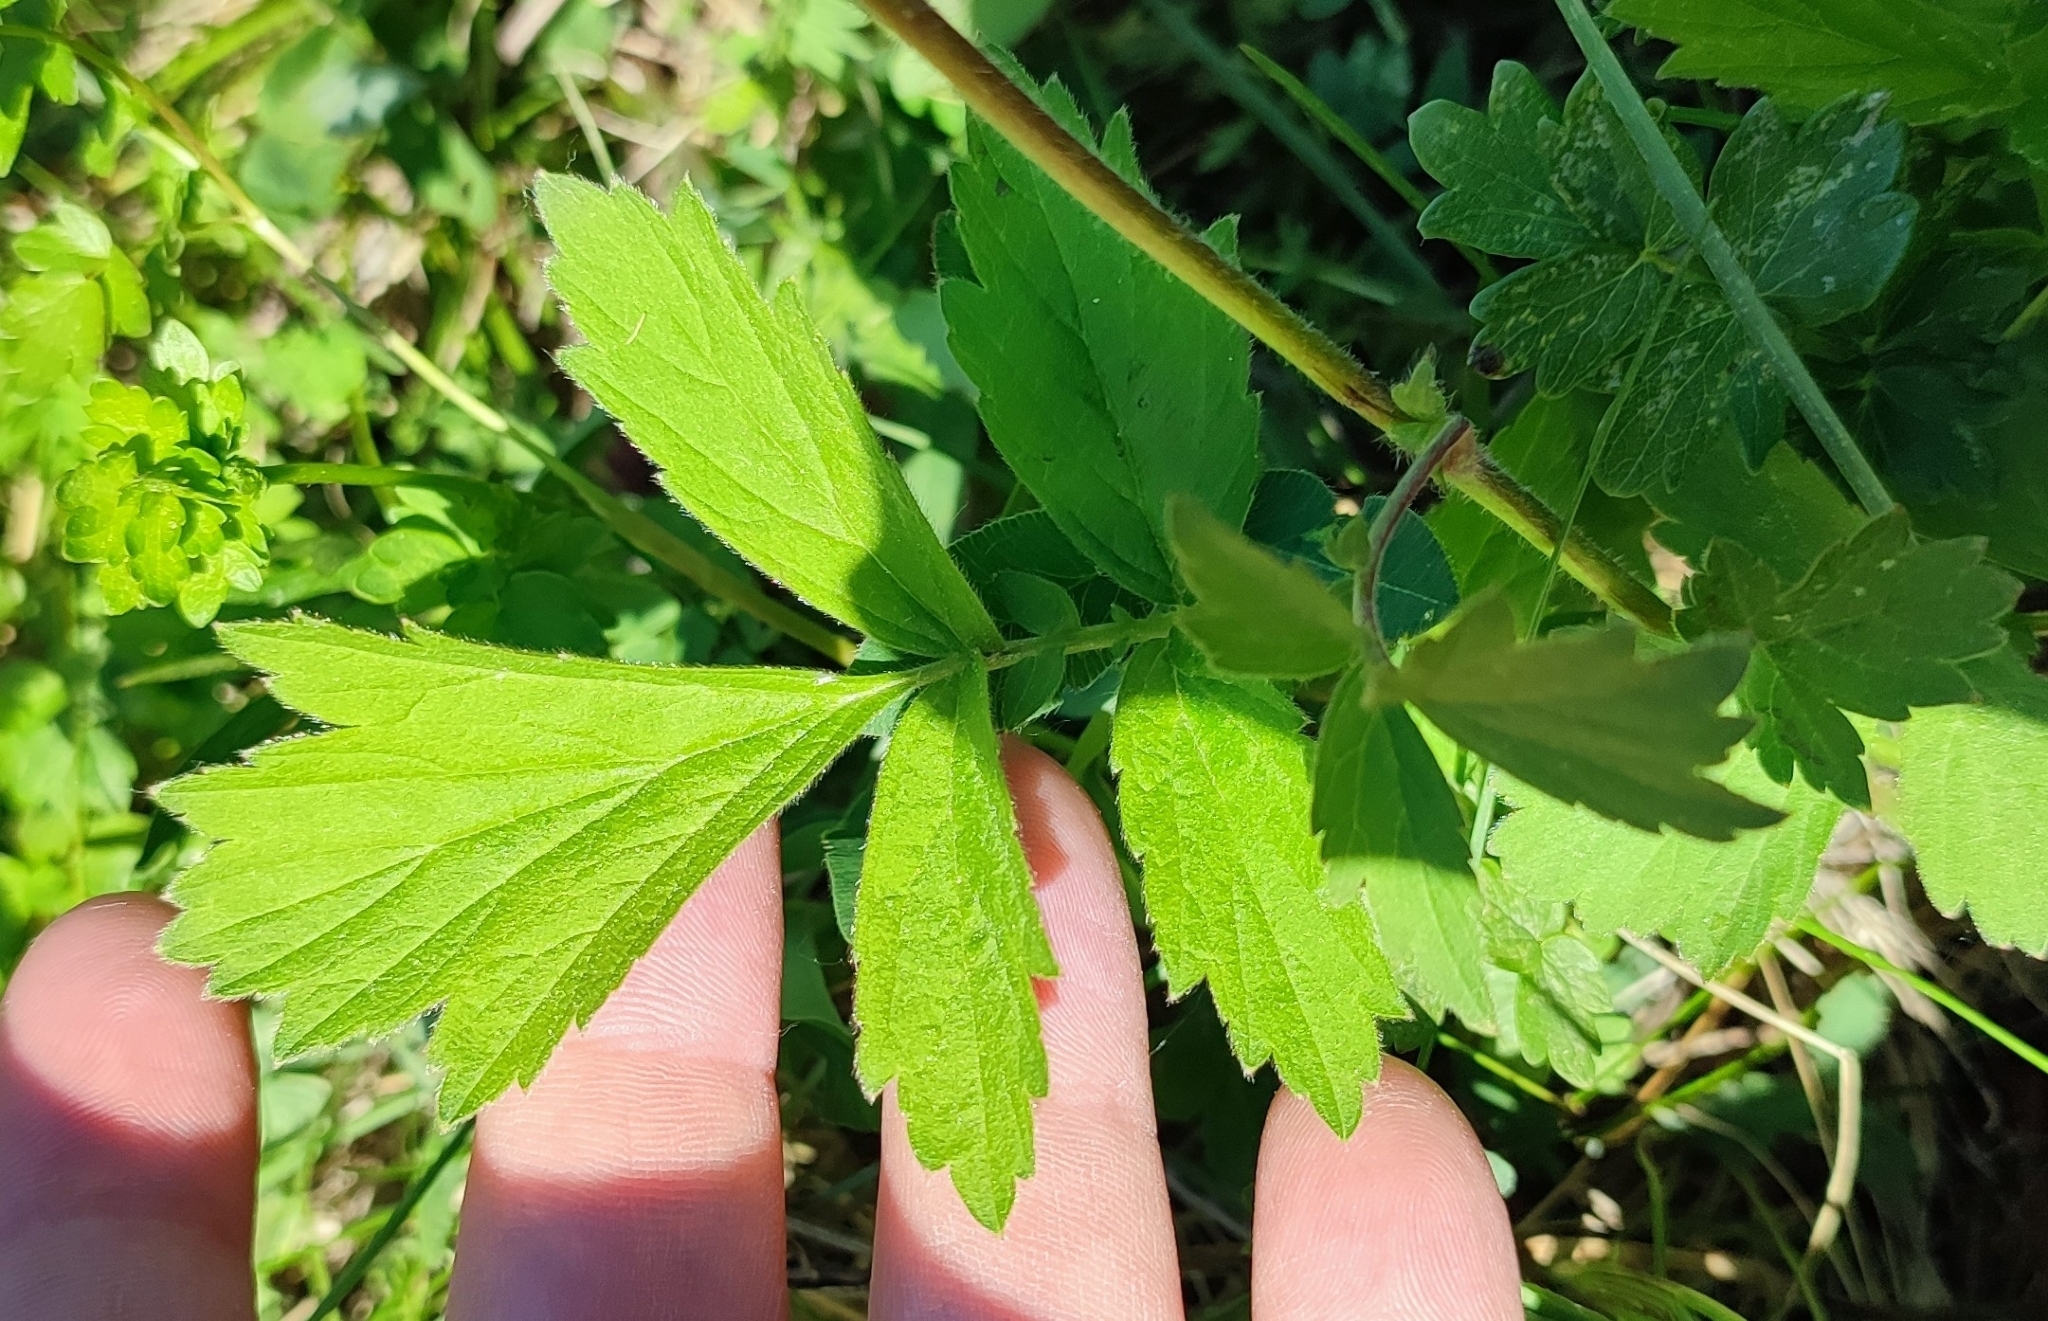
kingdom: Plantae
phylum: Tracheophyta
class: Magnoliopsida
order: Rosales
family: Rosaceae
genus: Geum
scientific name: Geum rivale
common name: Water avens
